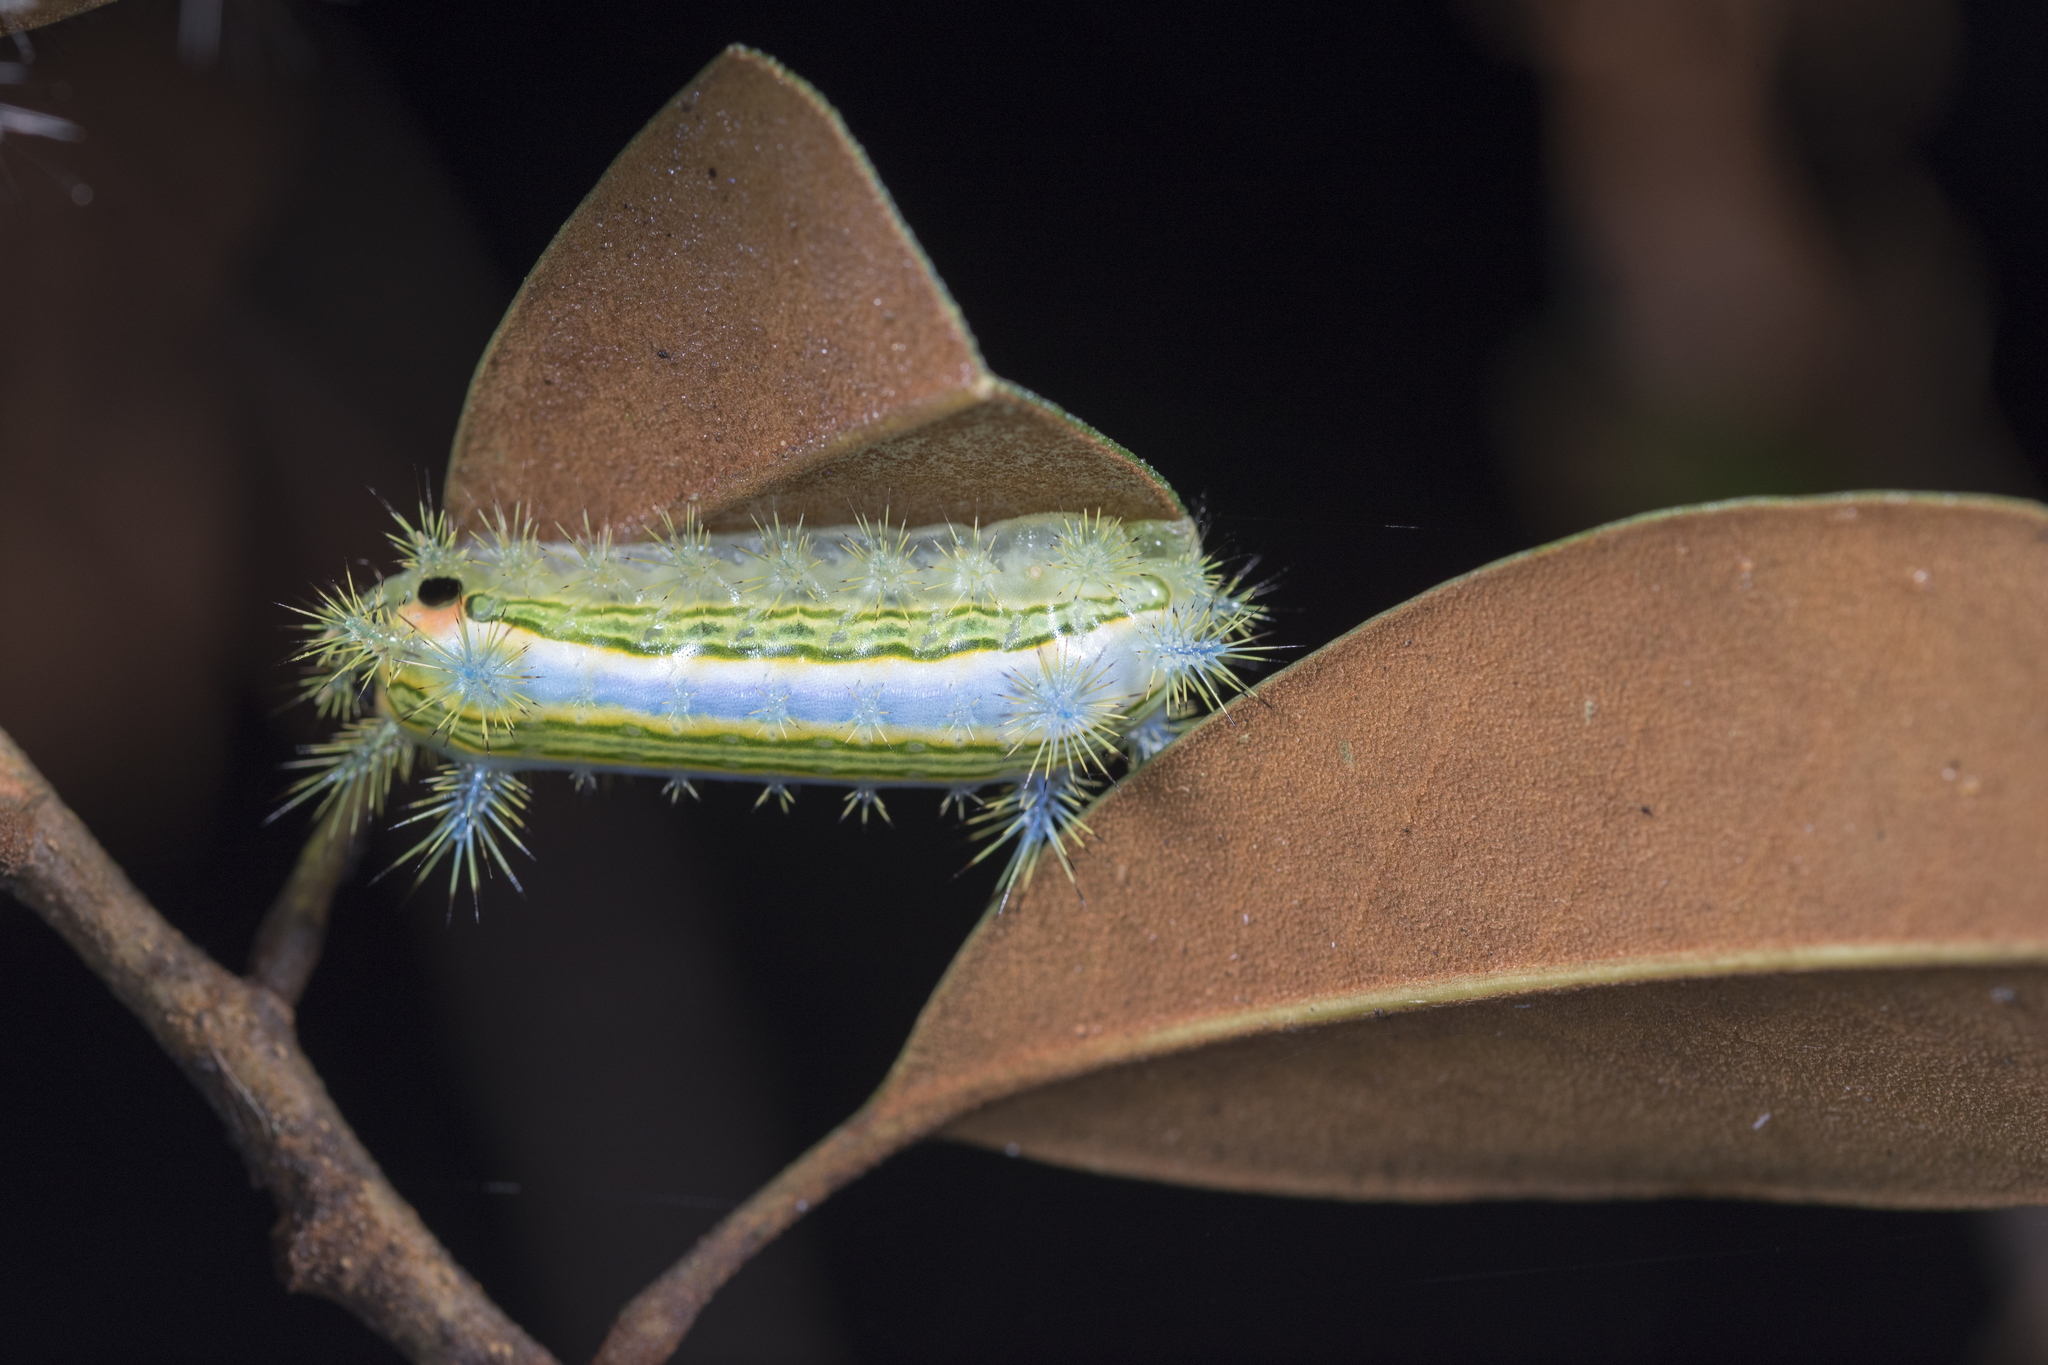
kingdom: Animalia
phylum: Arthropoda
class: Insecta
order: Lepidoptera
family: Limacodidae
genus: Parasa
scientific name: Parasa shirakii
